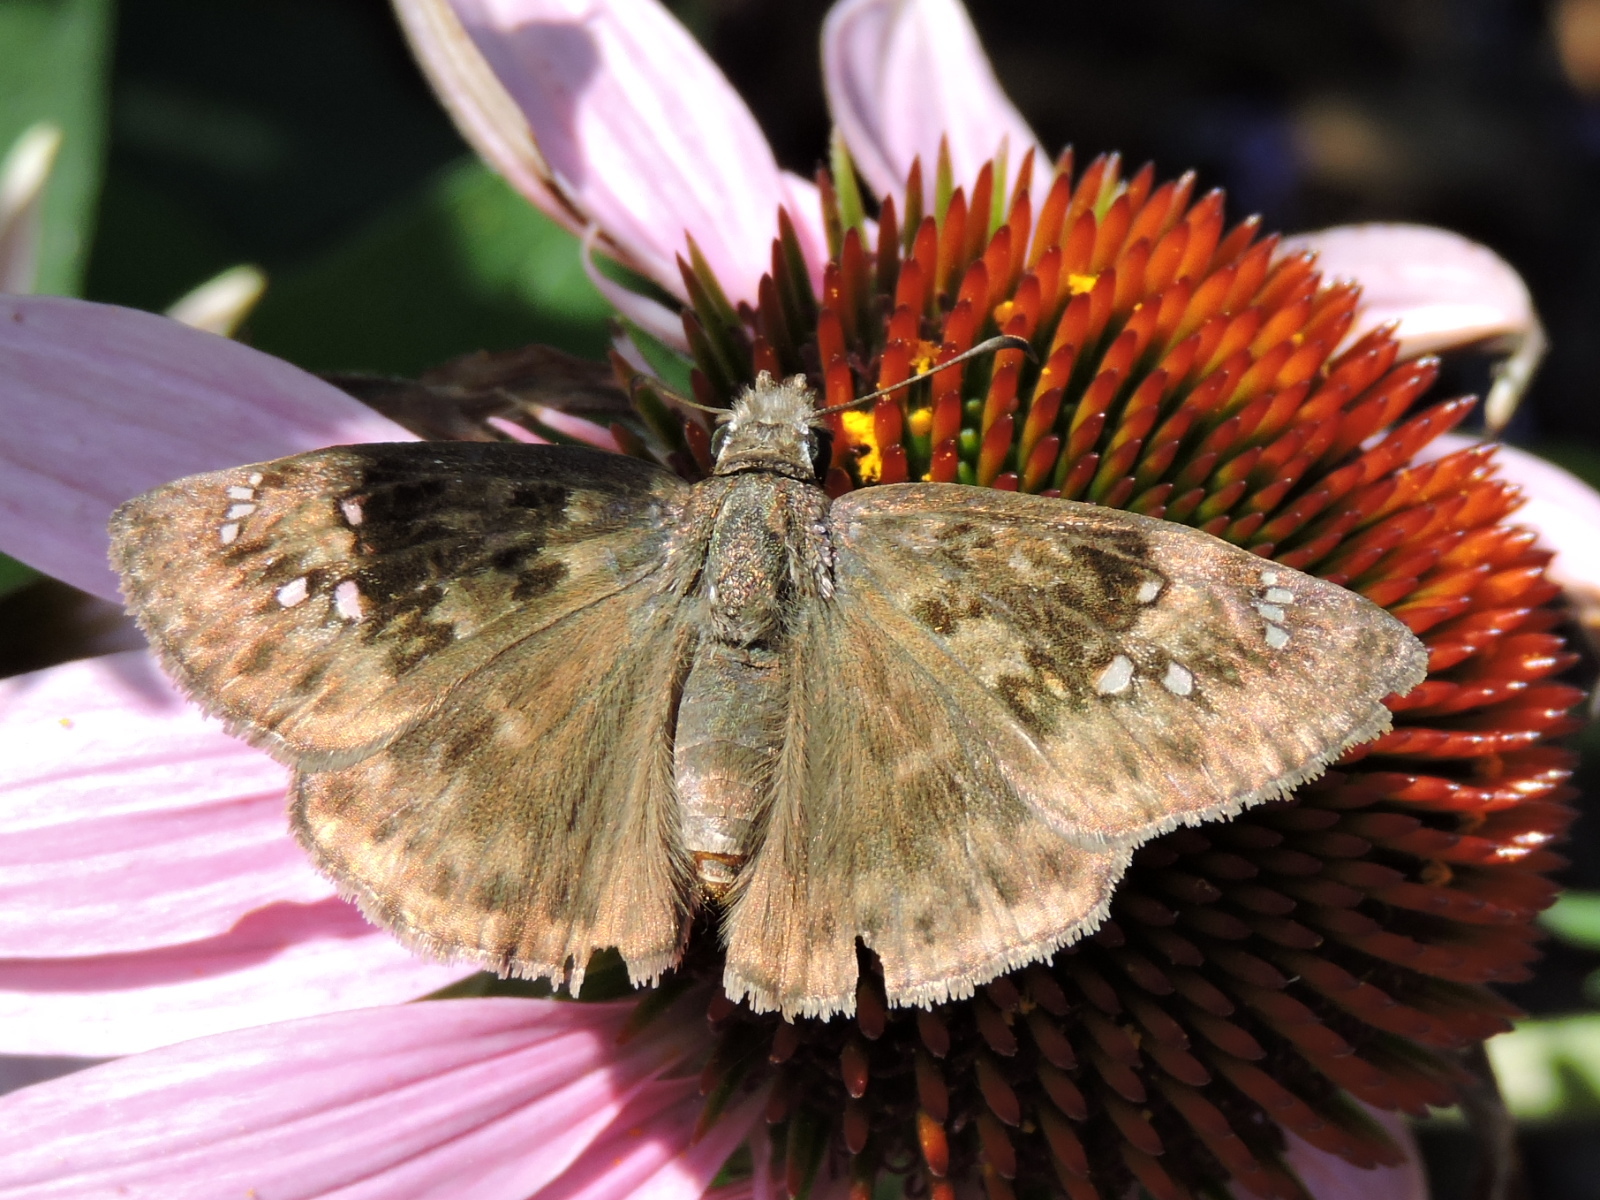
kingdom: Animalia
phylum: Arthropoda
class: Insecta
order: Lepidoptera
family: Hesperiidae
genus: Erynnis
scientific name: Erynnis horatius
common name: Horace's duskywing
